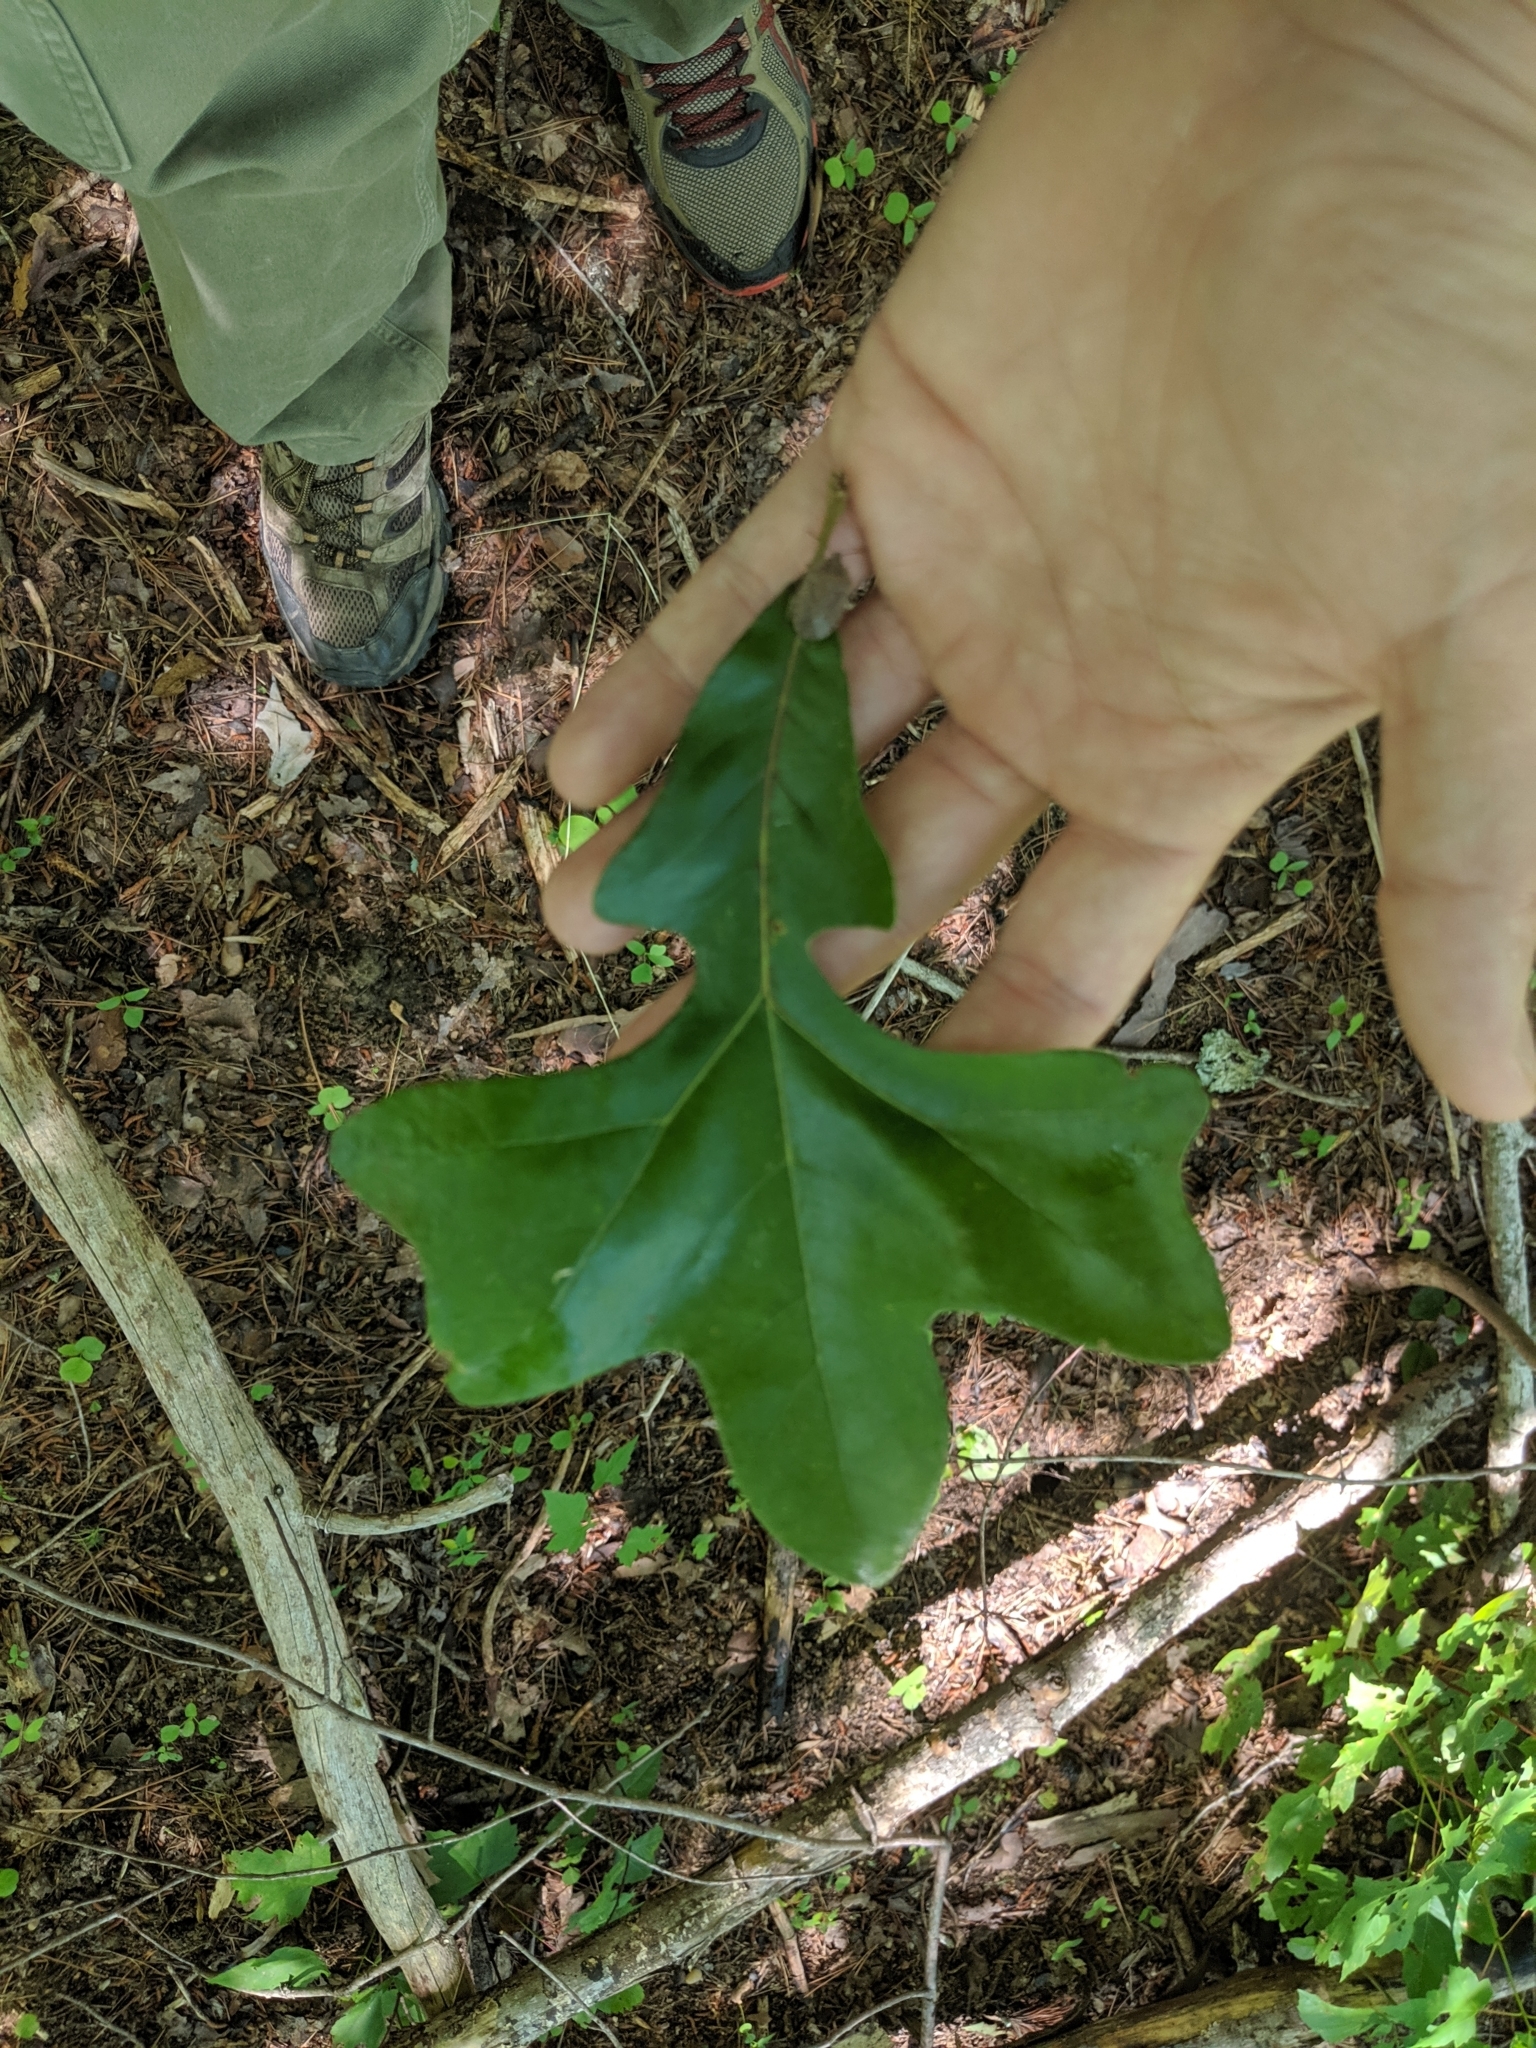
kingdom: Plantae
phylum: Tracheophyta
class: Magnoliopsida
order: Fagales
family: Fagaceae
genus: Quercus
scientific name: Quercus stellata
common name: Post oak
